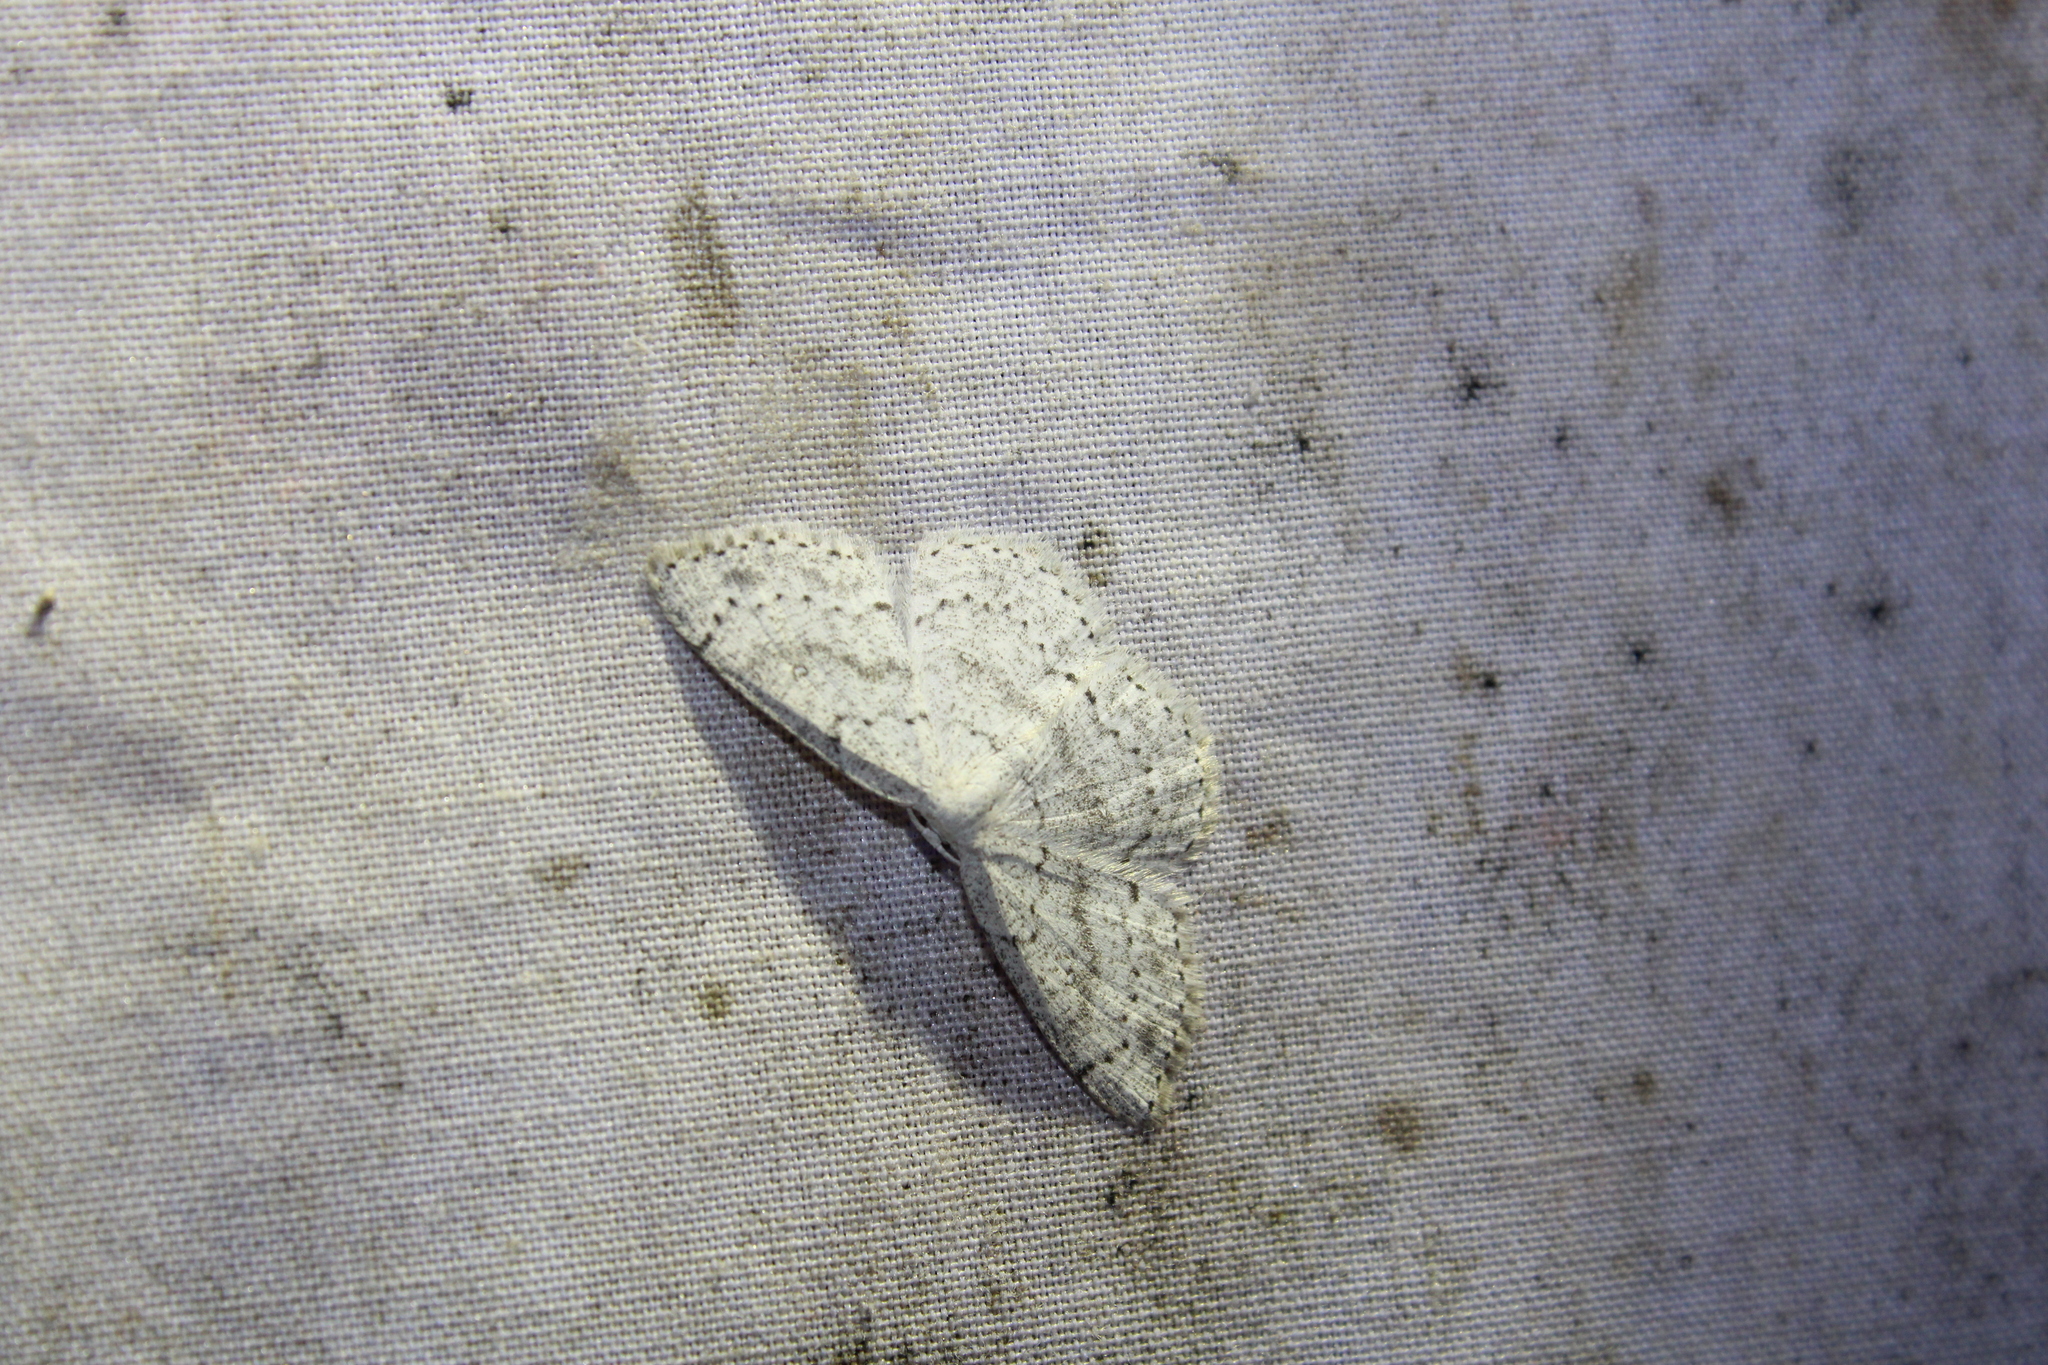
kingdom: Animalia
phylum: Arthropoda
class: Insecta
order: Lepidoptera
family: Geometridae
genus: Cyclophora
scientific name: Cyclophora pendulinaria
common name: Sweet fern geometer
